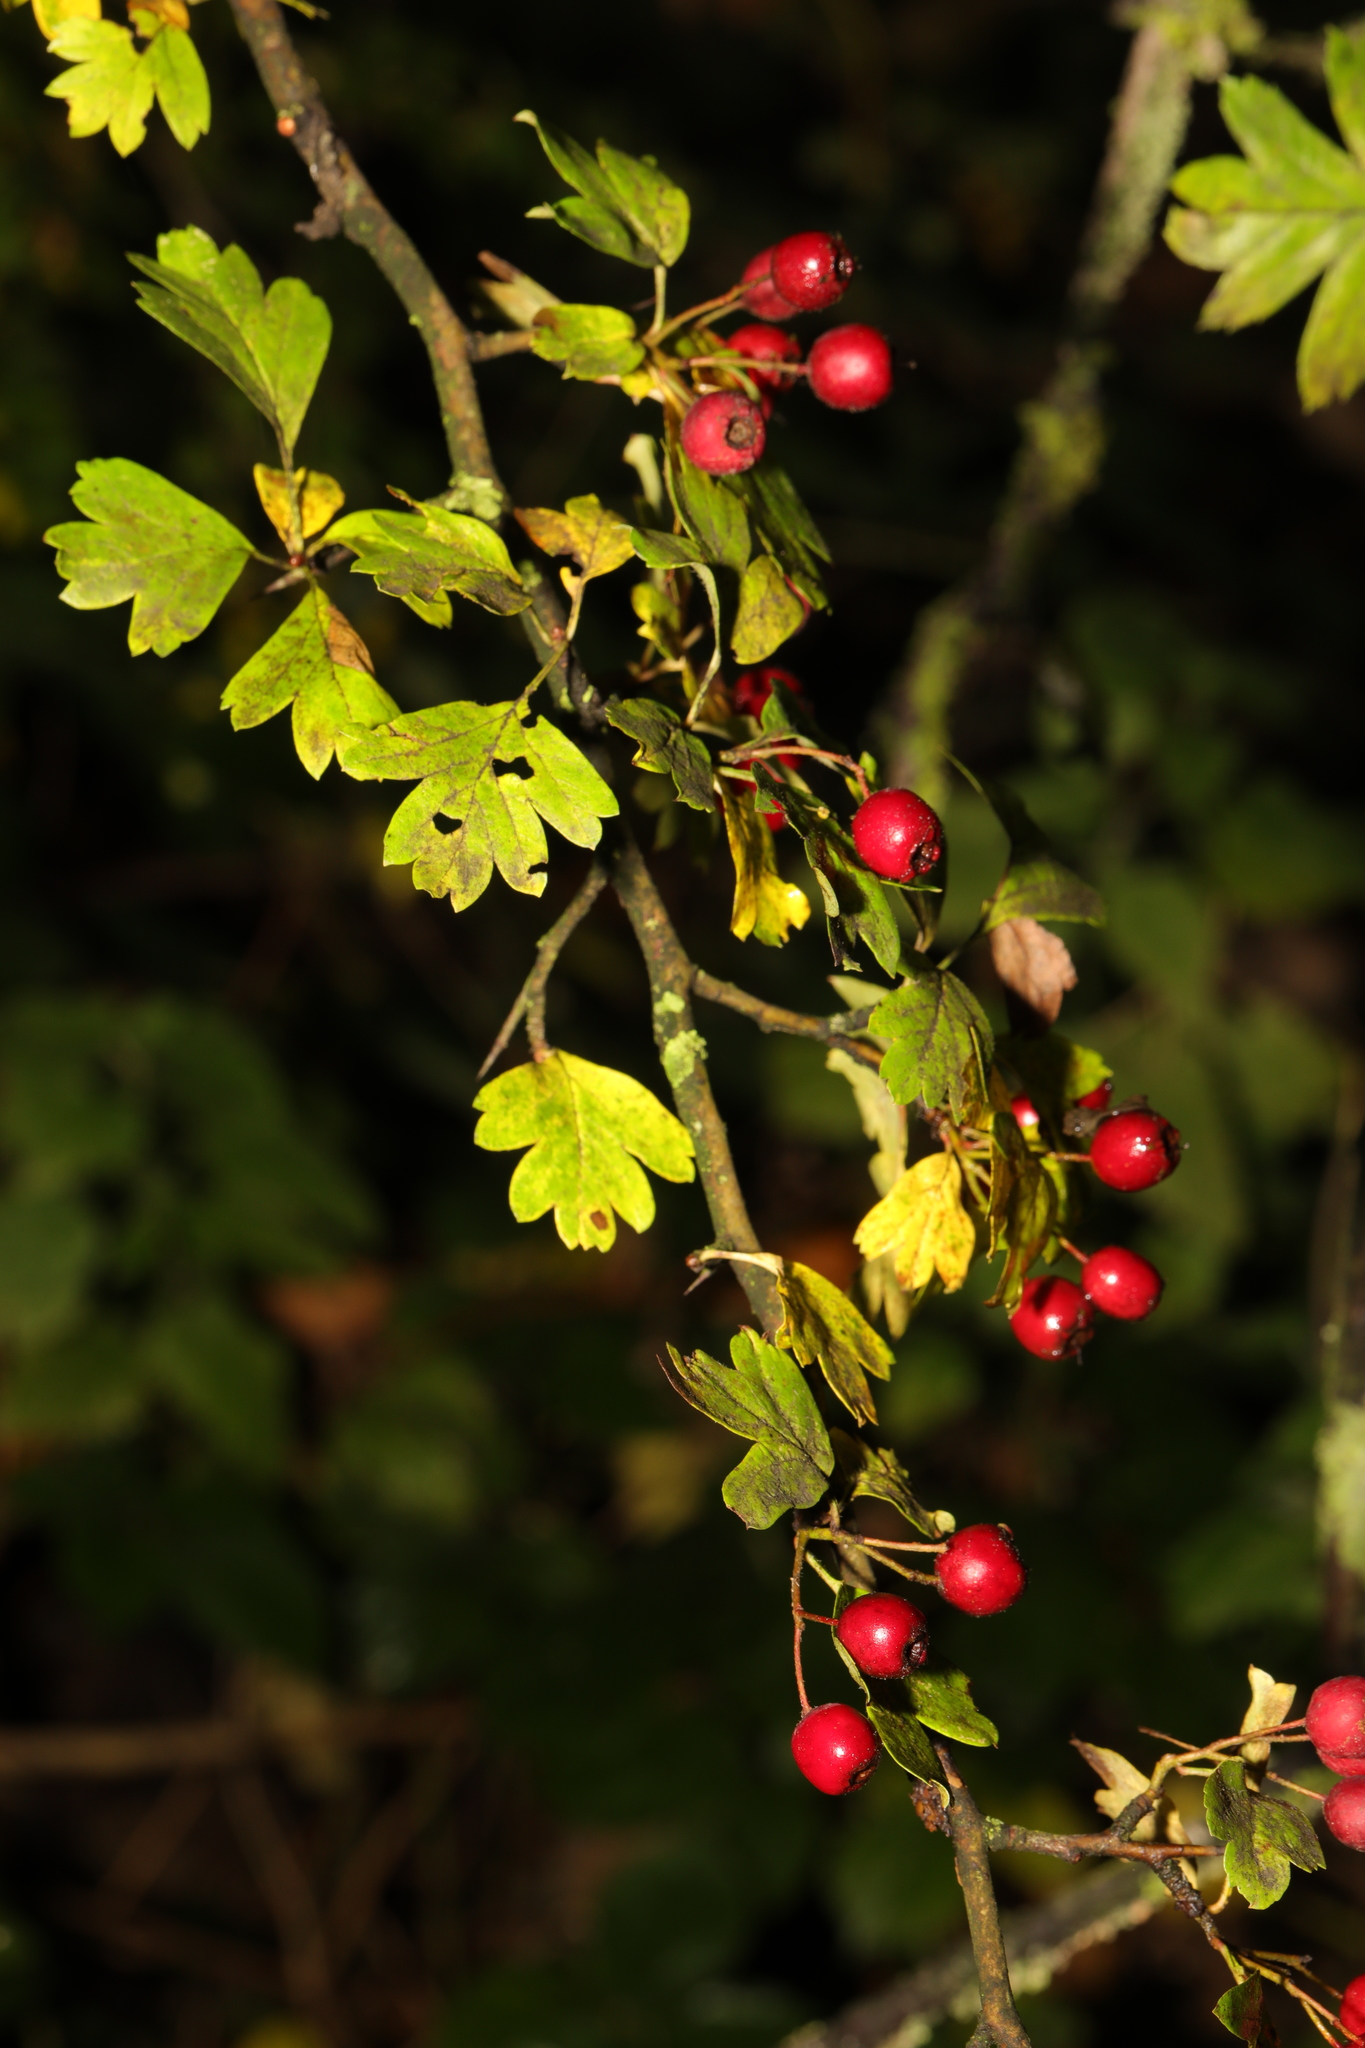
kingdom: Plantae
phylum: Tracheophyta
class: Magnoliopsida
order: Rosales
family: Rosaceae
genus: Crataegus
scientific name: Crataegus monogyna
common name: Hawthorn
